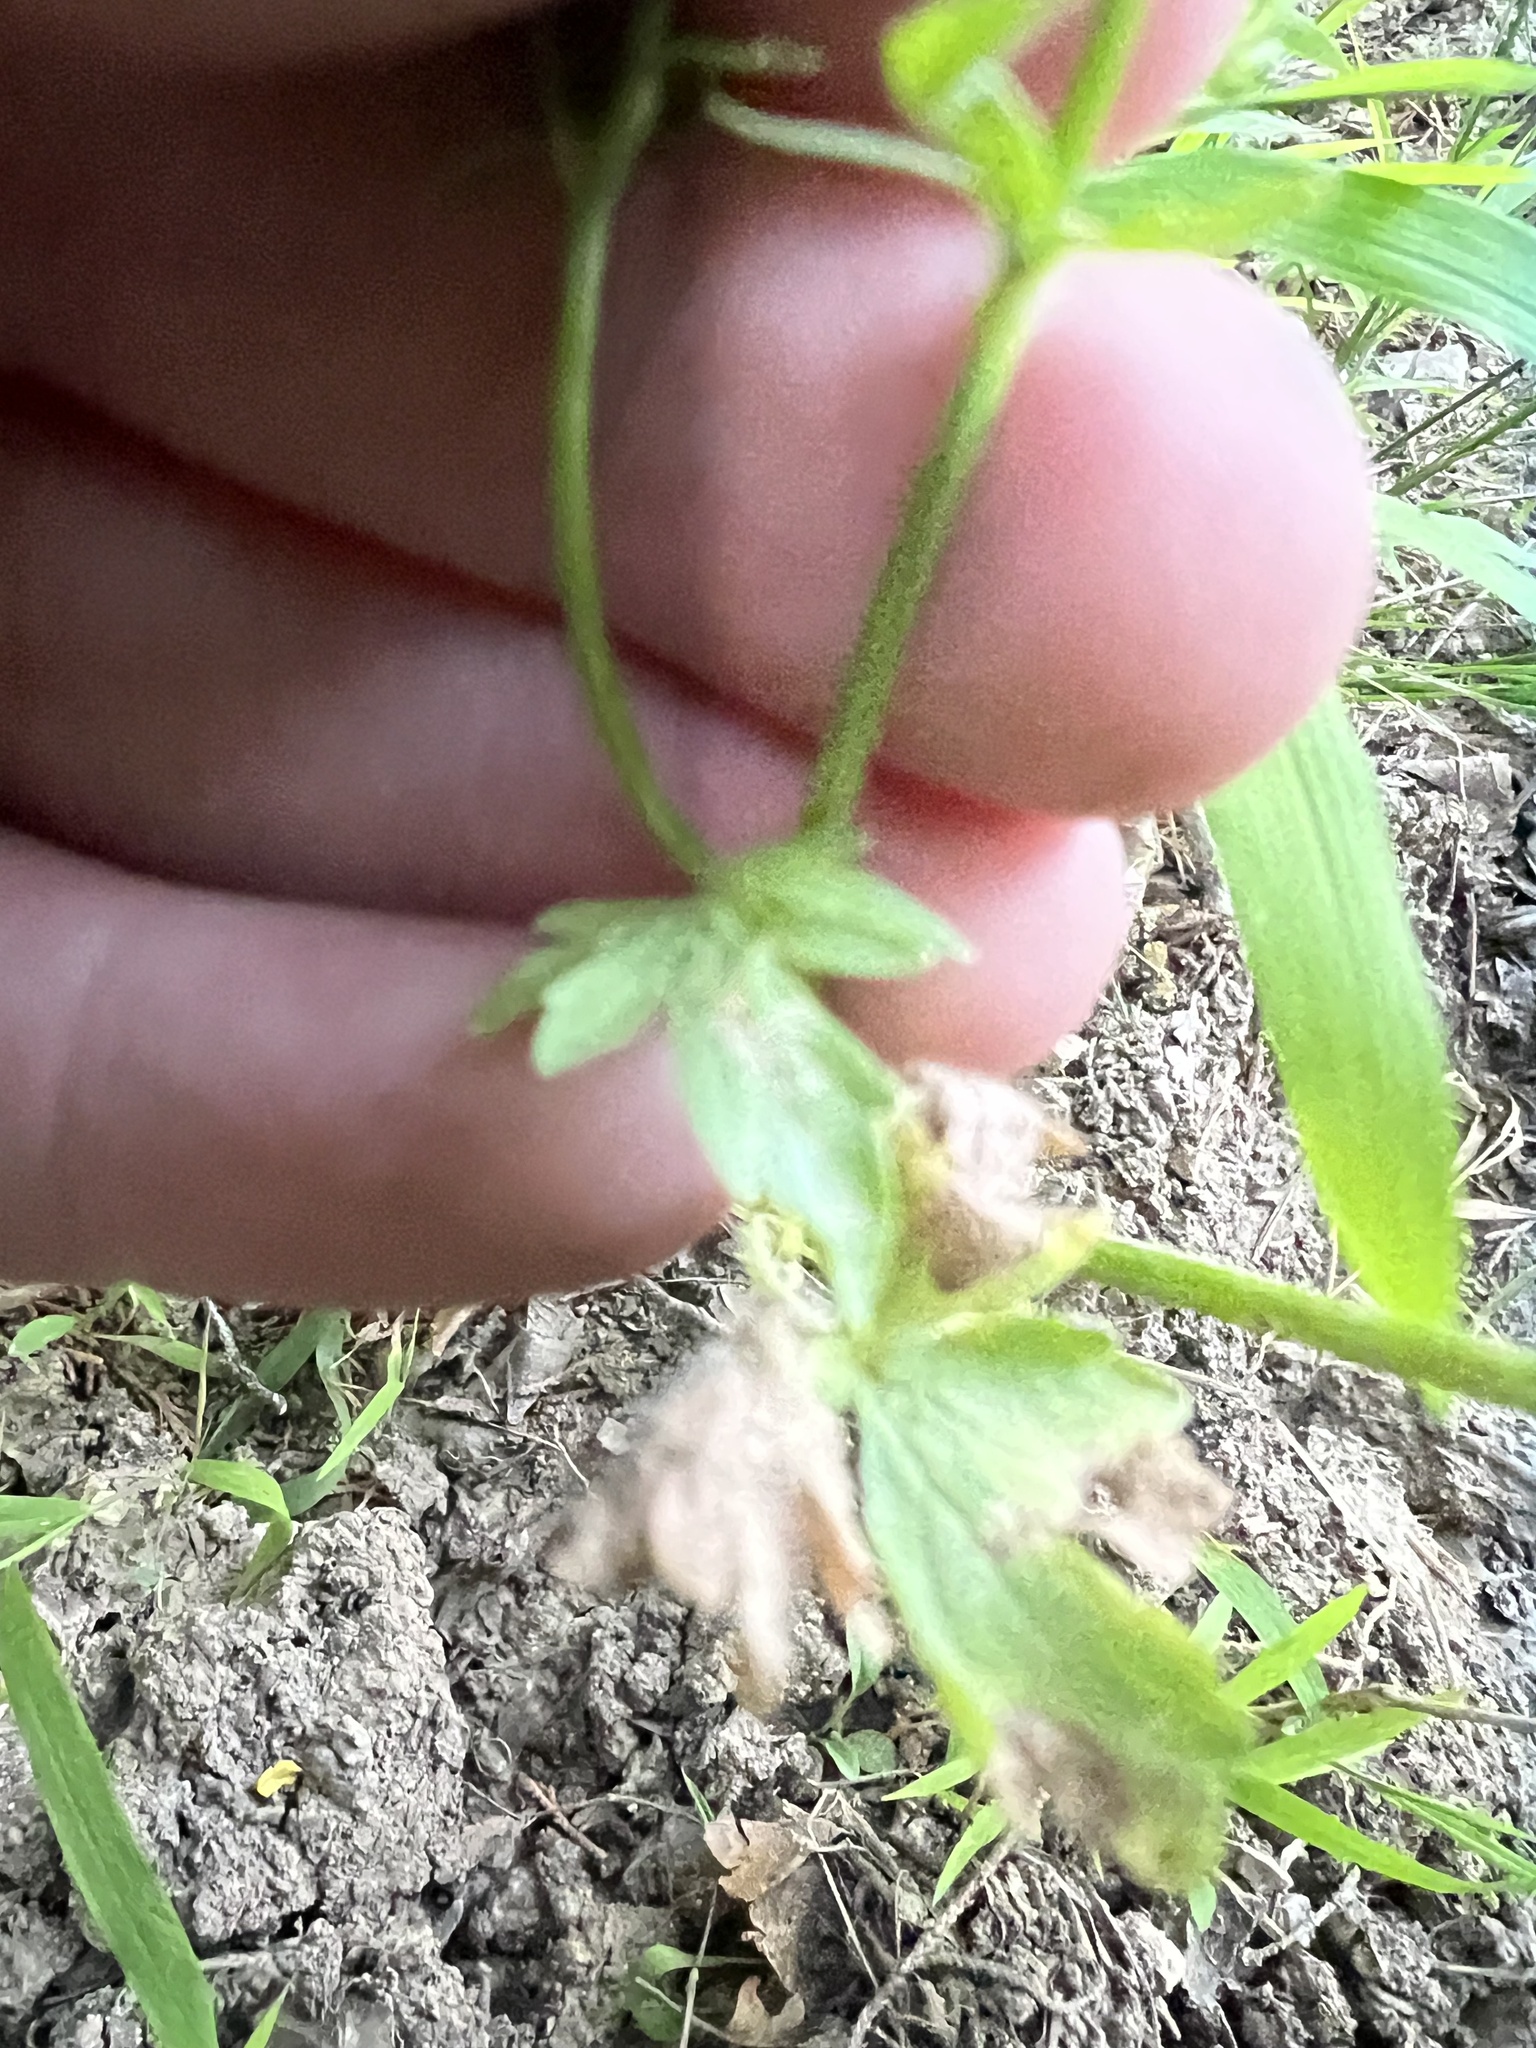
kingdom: Plantae
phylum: Tracheophyta
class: Magnoliopsida
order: Ranunculales
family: Ranunculaceae
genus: Ranunculus
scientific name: Ranunculus sardous
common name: Hairy buttercup
